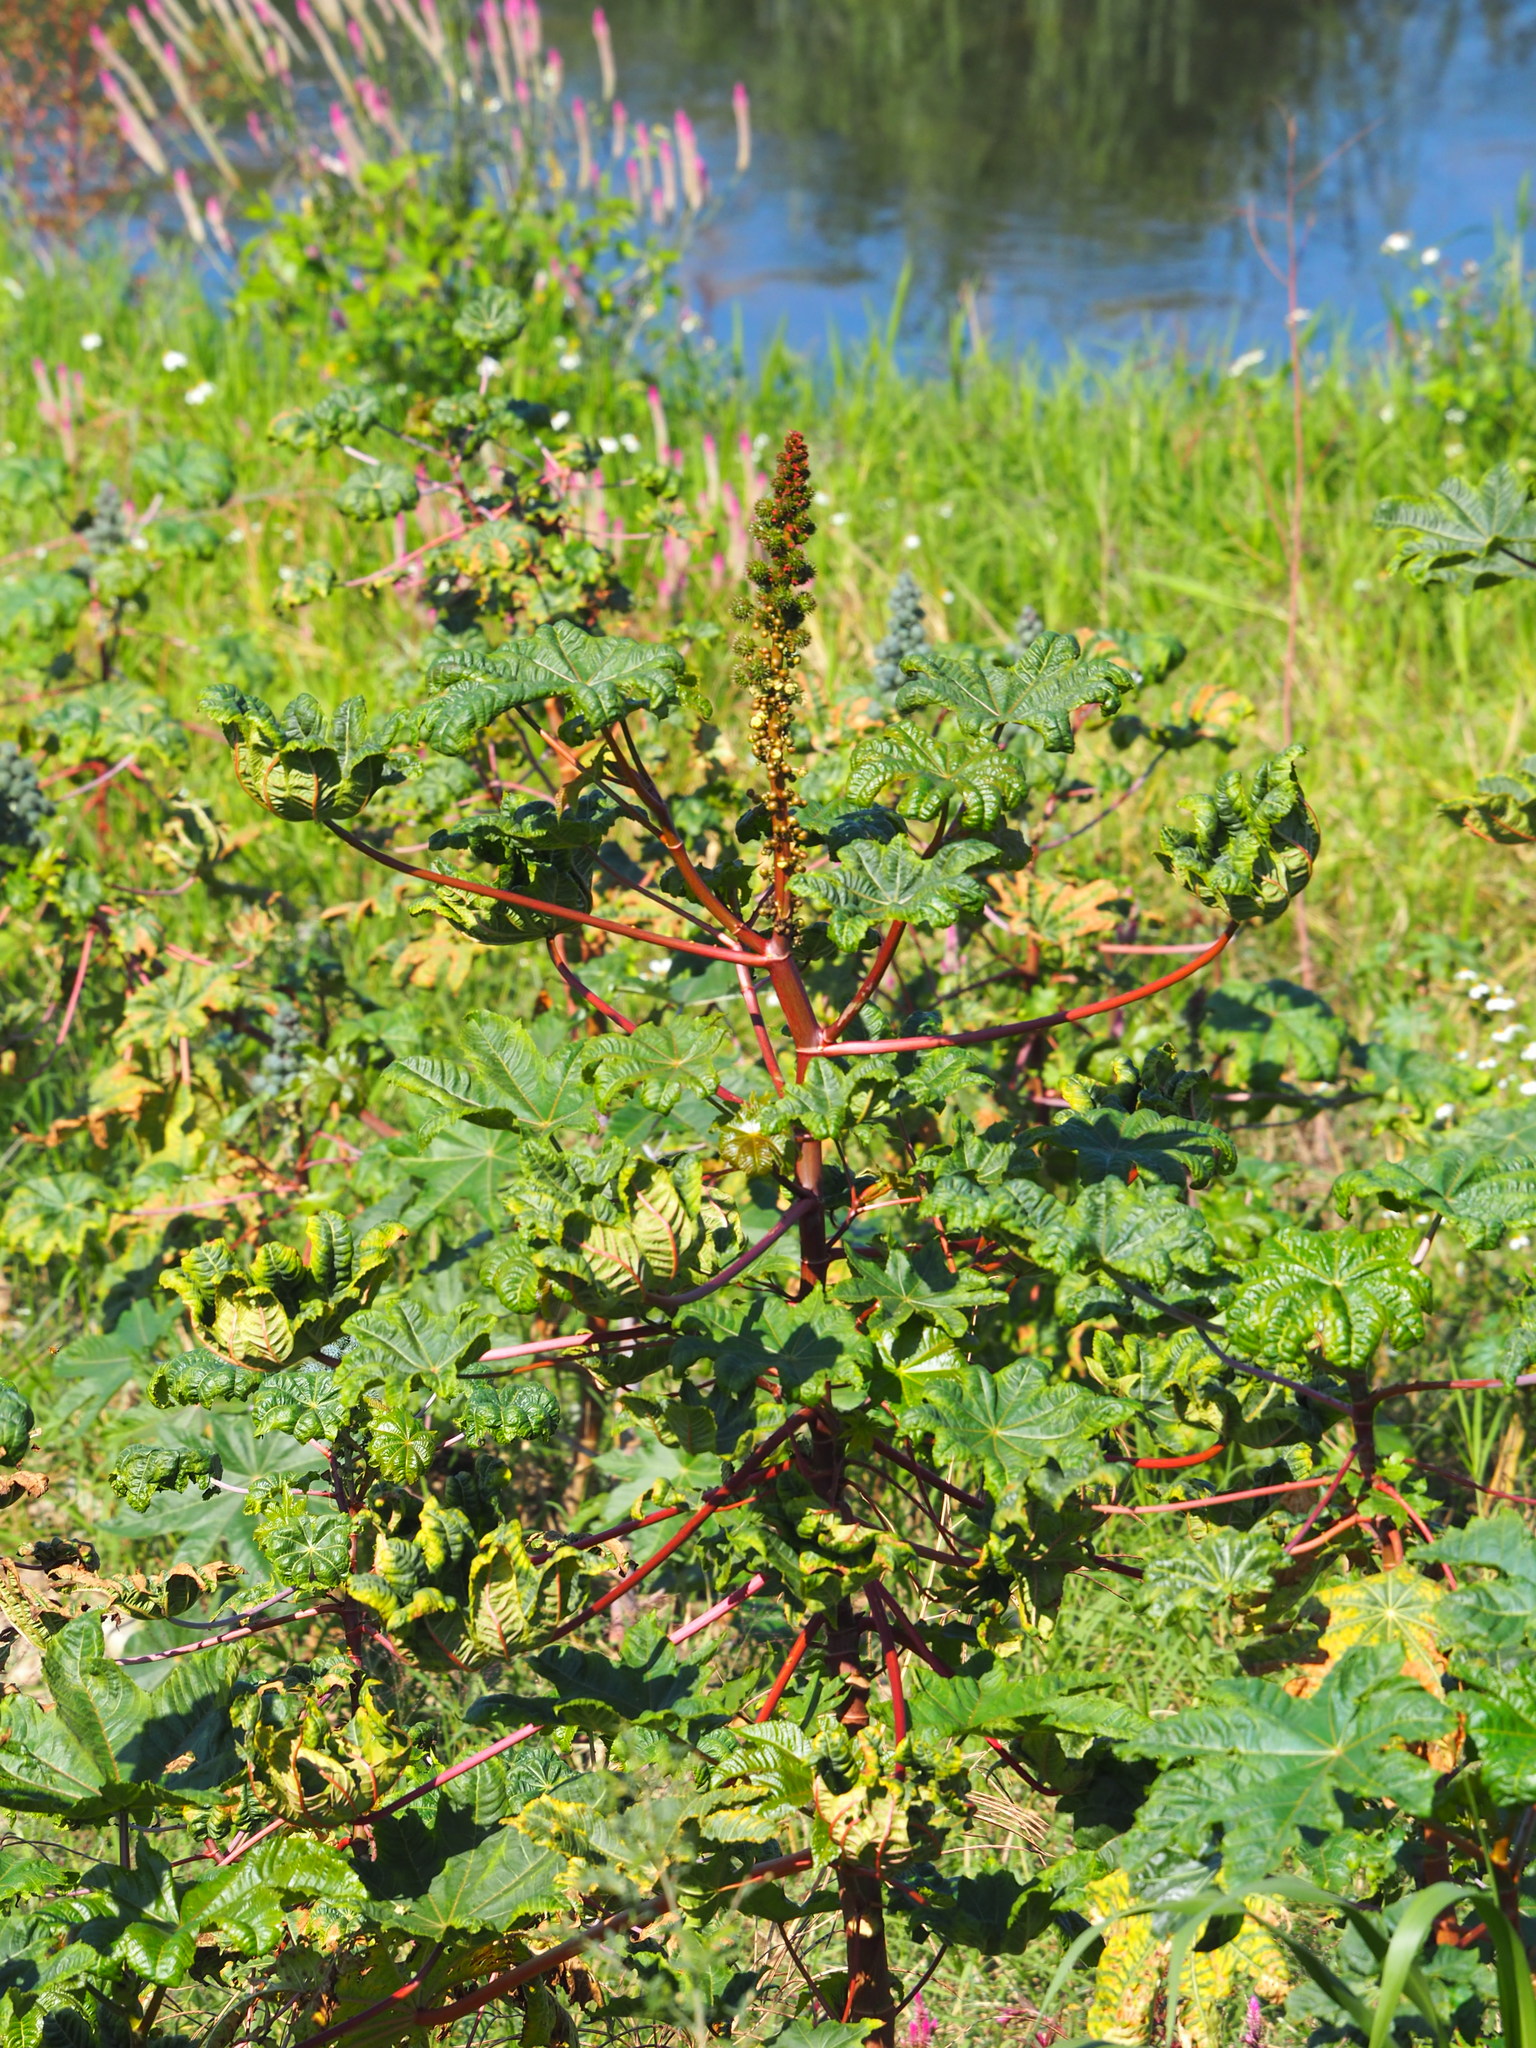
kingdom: Plantae
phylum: Tracheophyta
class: Magnoliopsida
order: Malpighiales
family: Euphorbiaceae
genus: Ricinus
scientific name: Ricinus communis
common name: Castor-oil-plant
